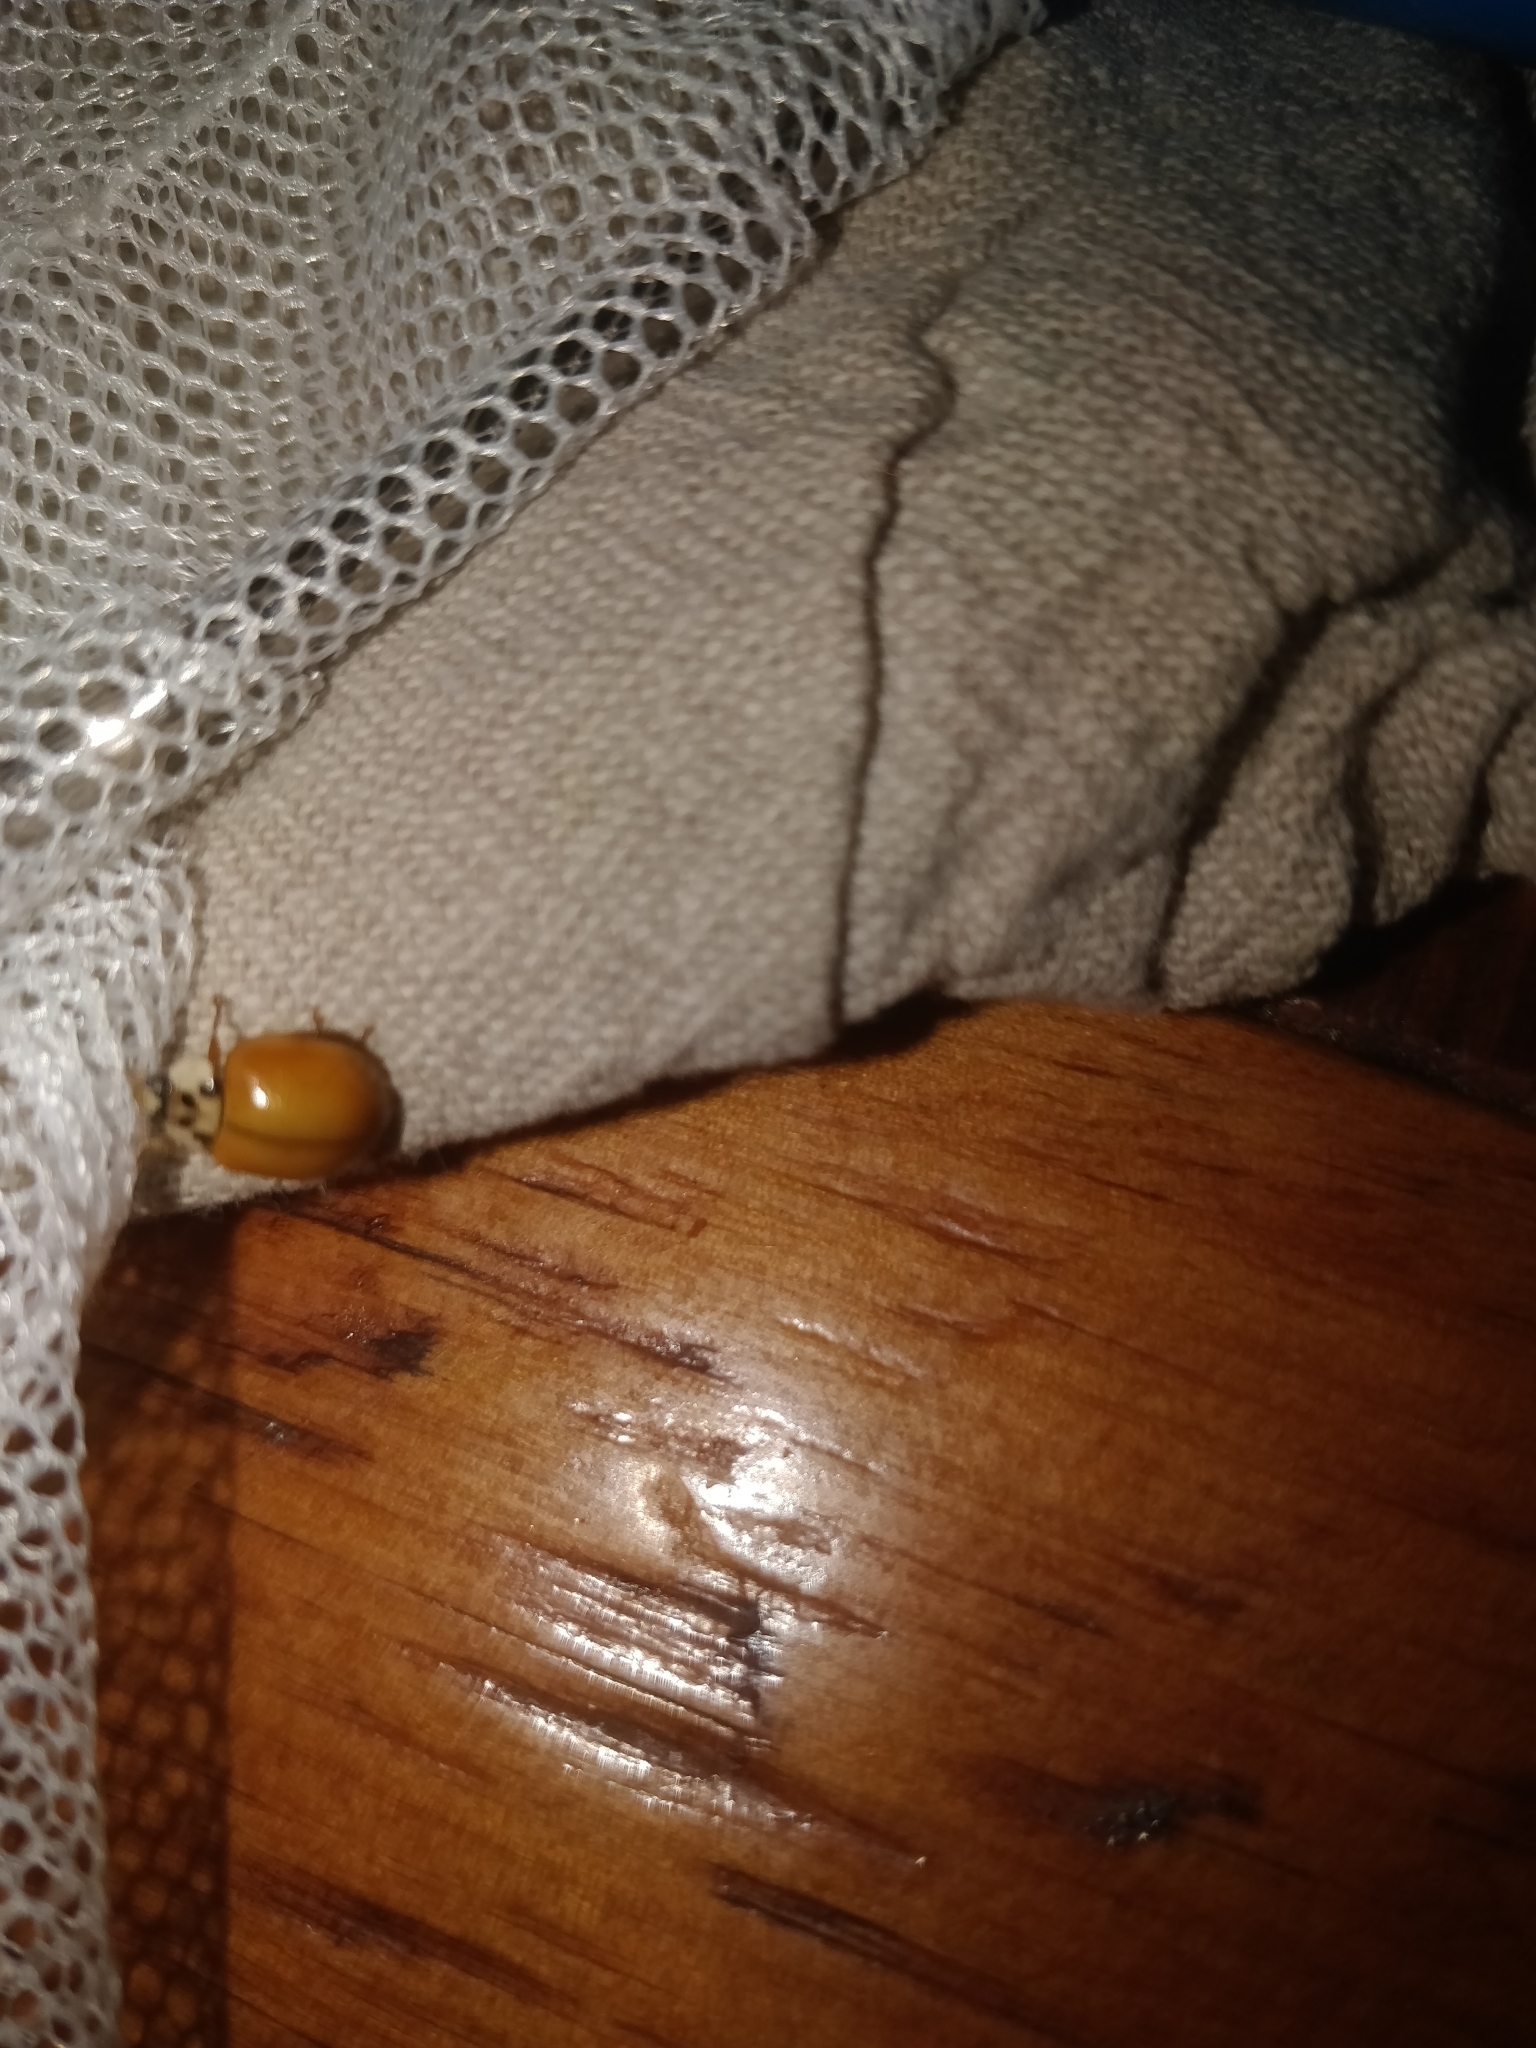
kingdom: Animalia
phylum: Arthropoda
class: Insecta
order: Coleoptera
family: Coccinellidae
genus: Harmonia
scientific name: Harmonia axyridis
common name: Harlequin ladybird
